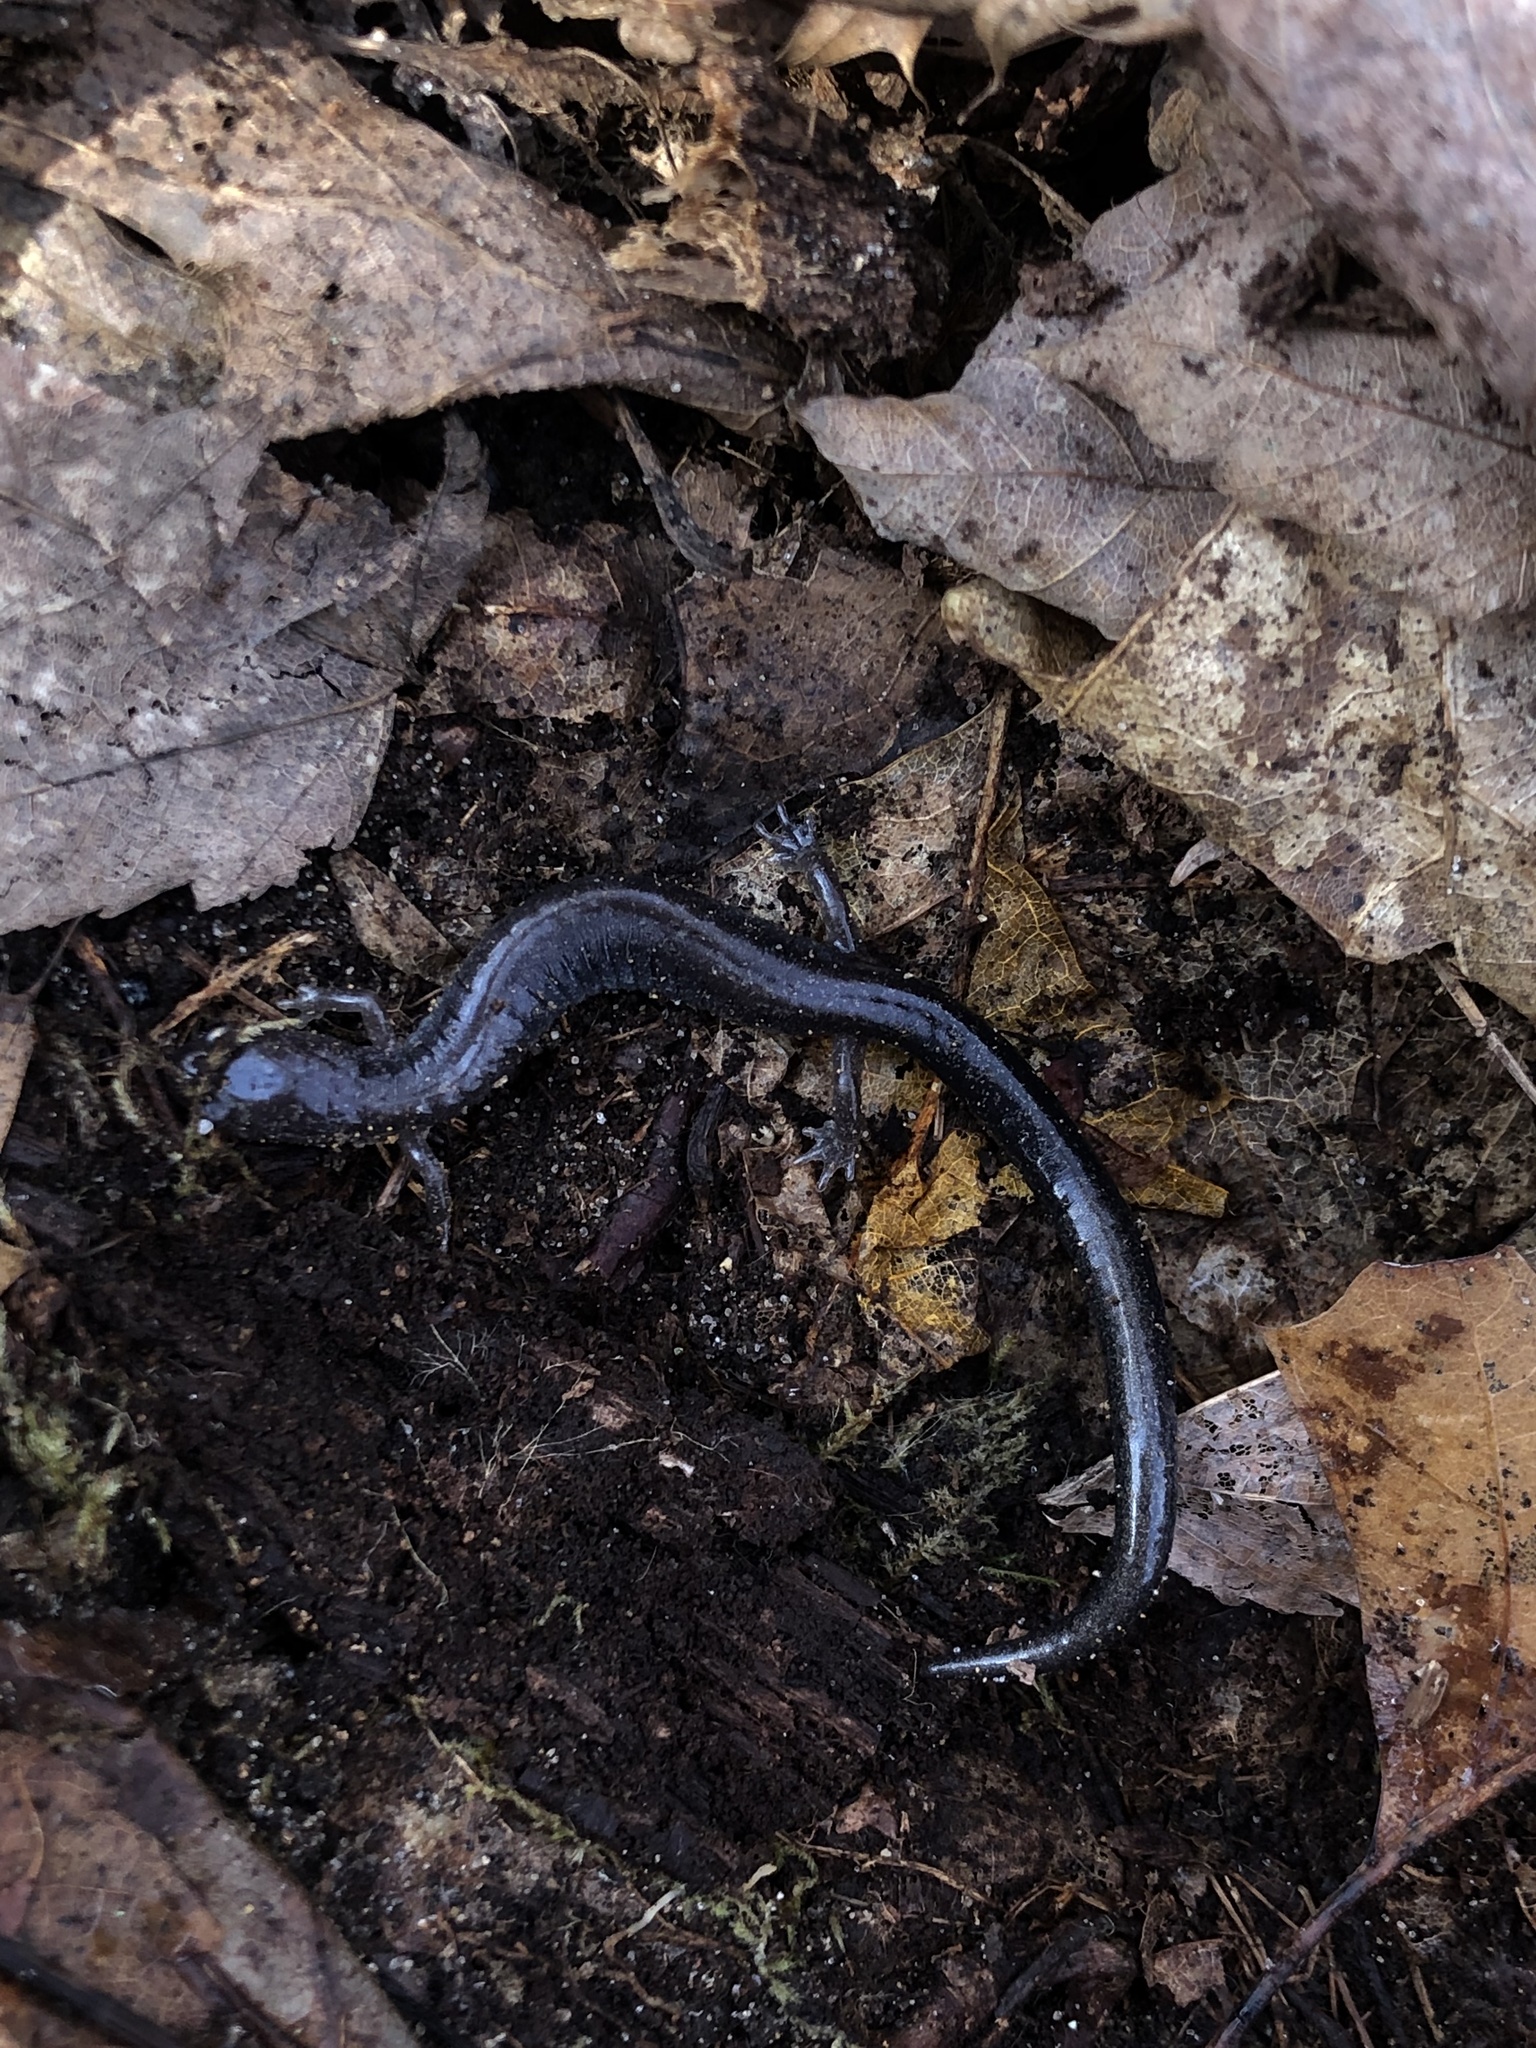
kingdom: Animalia
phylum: Chordata
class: Amphibia
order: Caudata
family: Plethodontidae
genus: Plethodon
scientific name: Plethodon cinereus
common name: Redback salamander
